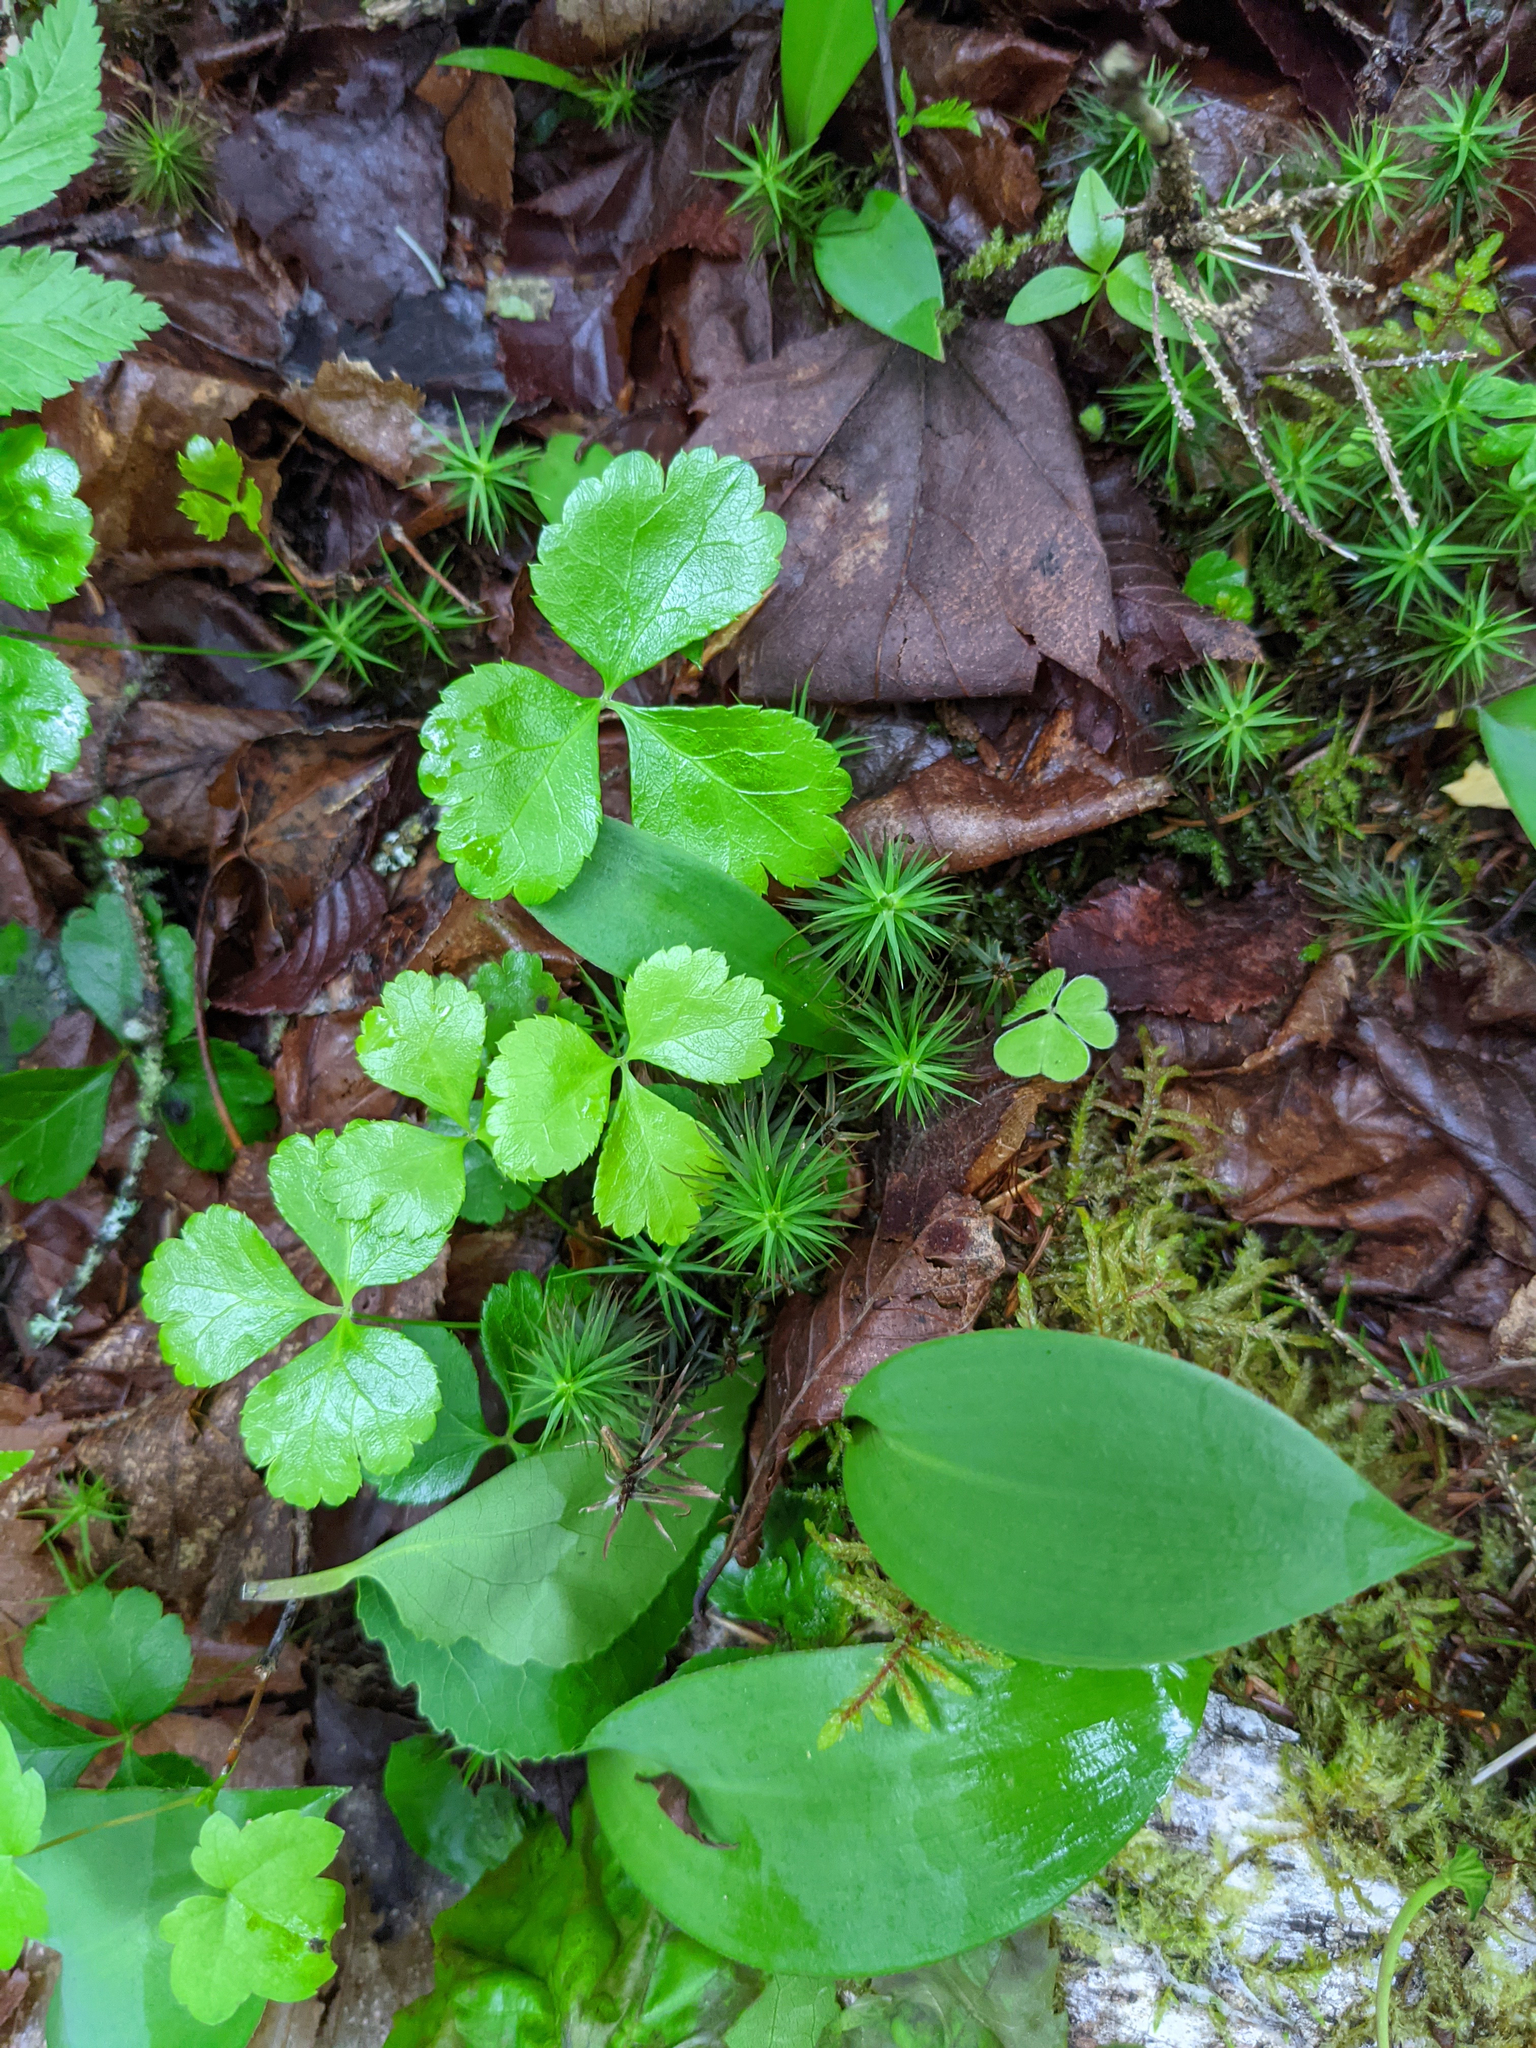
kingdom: Plantae
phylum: Tracheophyta
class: Magnoliopsida
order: Ranunculales
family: Ranunculaceae
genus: Coptis
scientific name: Coptis trifolia
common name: Canker-root
